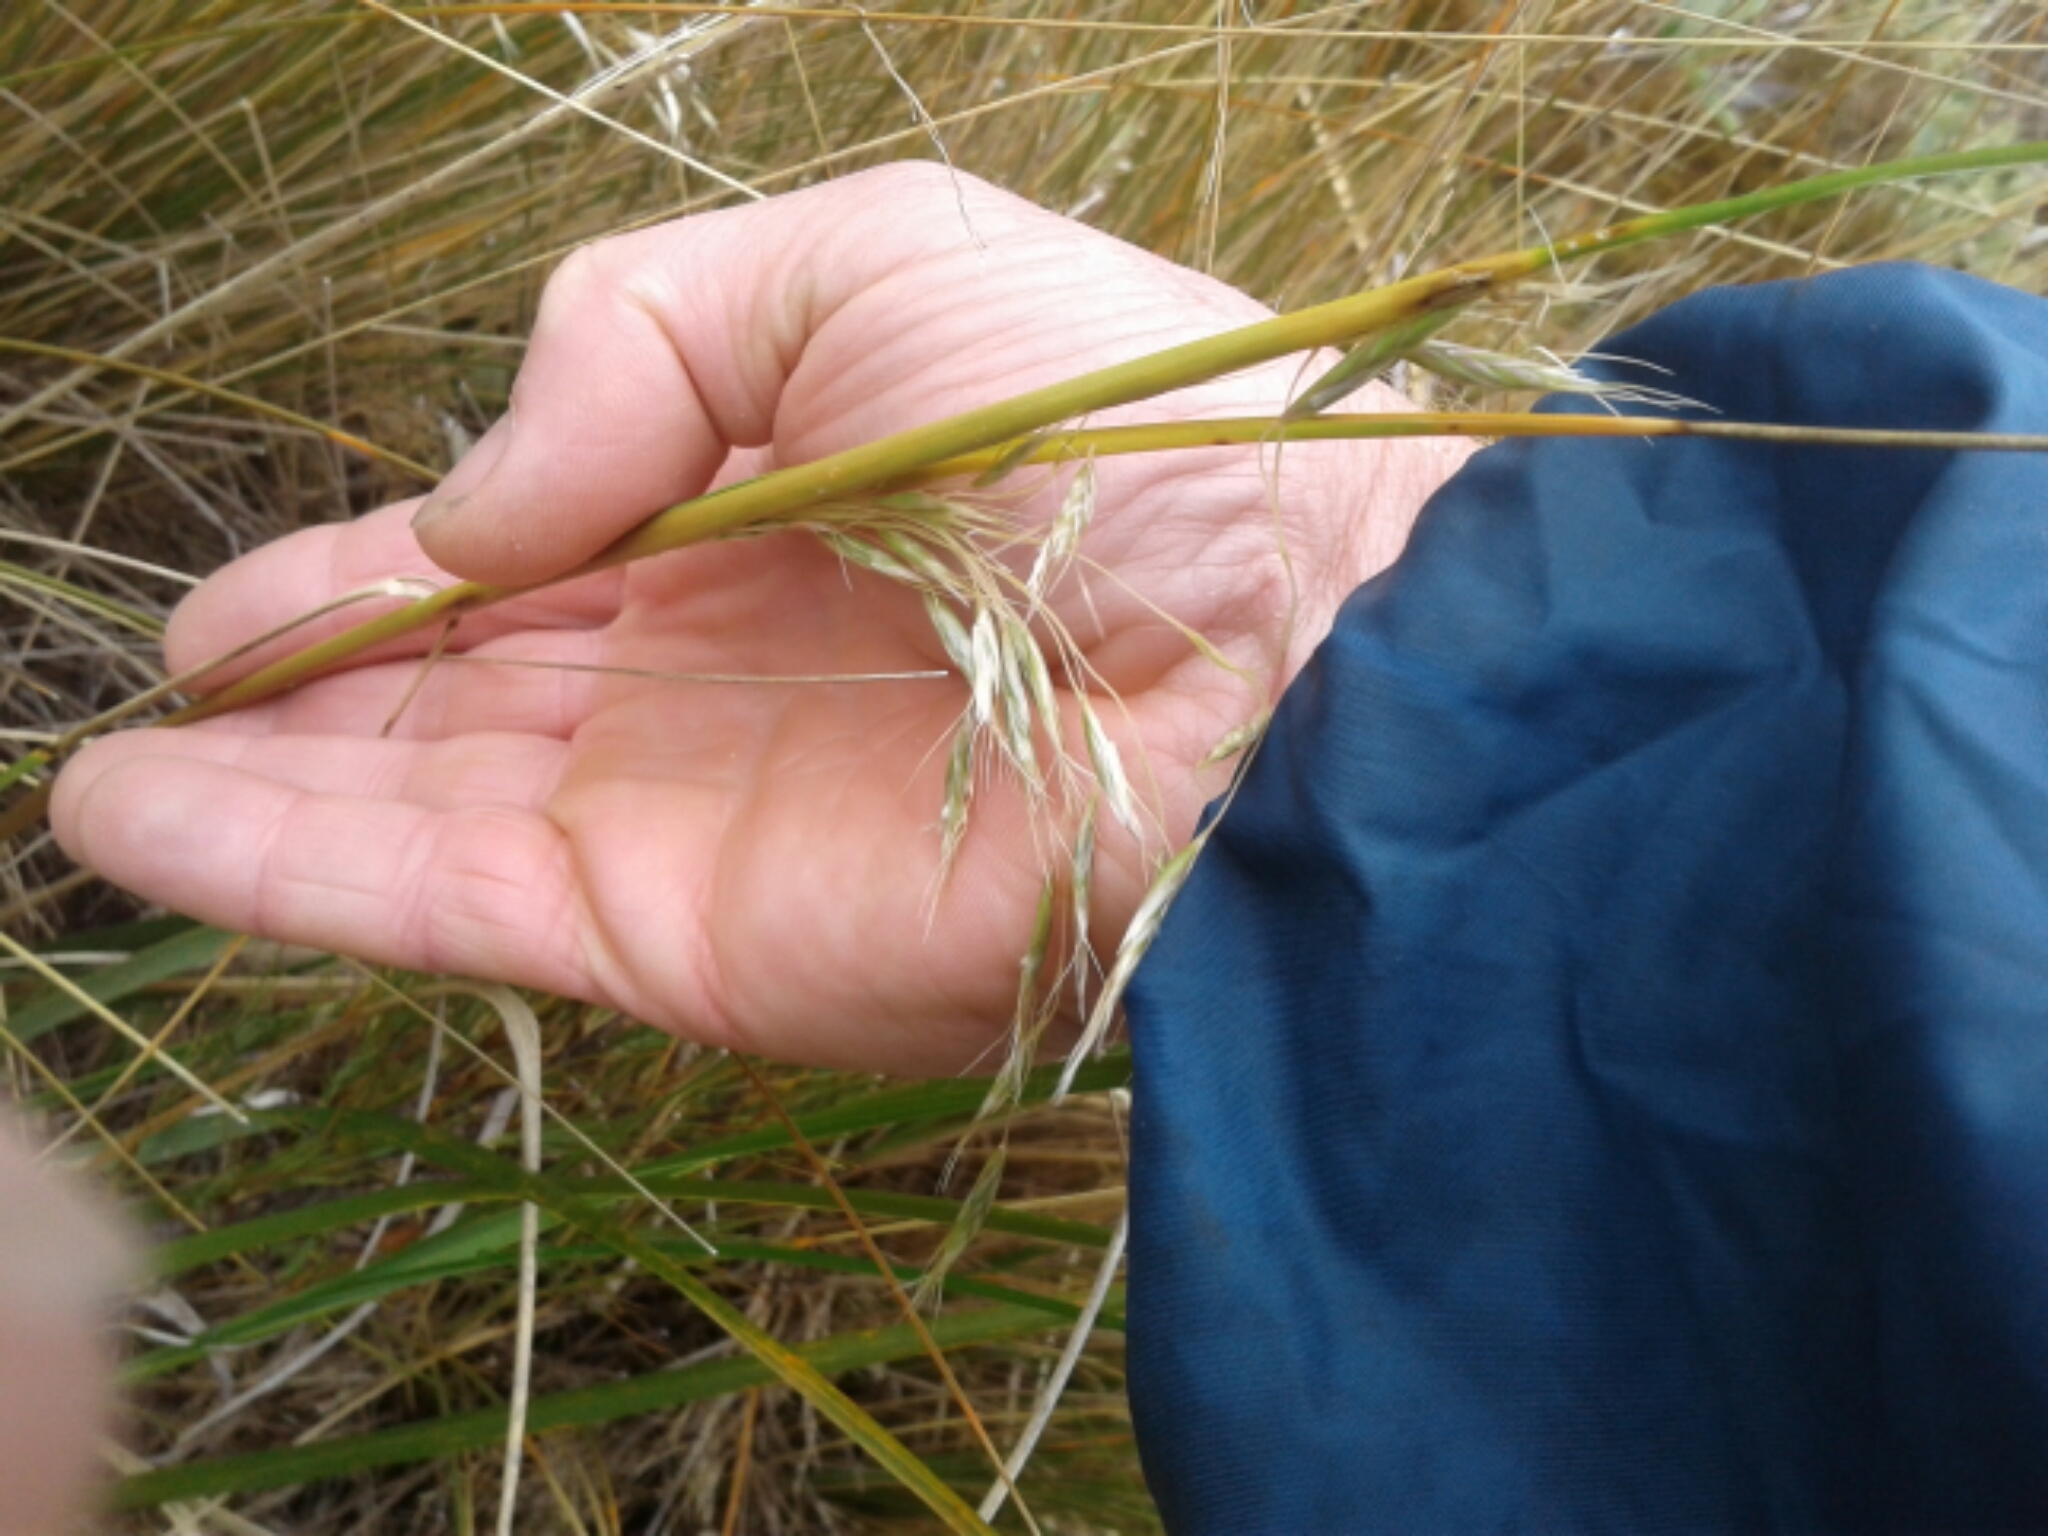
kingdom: Plantae
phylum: Tracheophyta
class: Liliopsida
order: Poales
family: Poaceae
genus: Chionochloa
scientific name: Chionochloa
